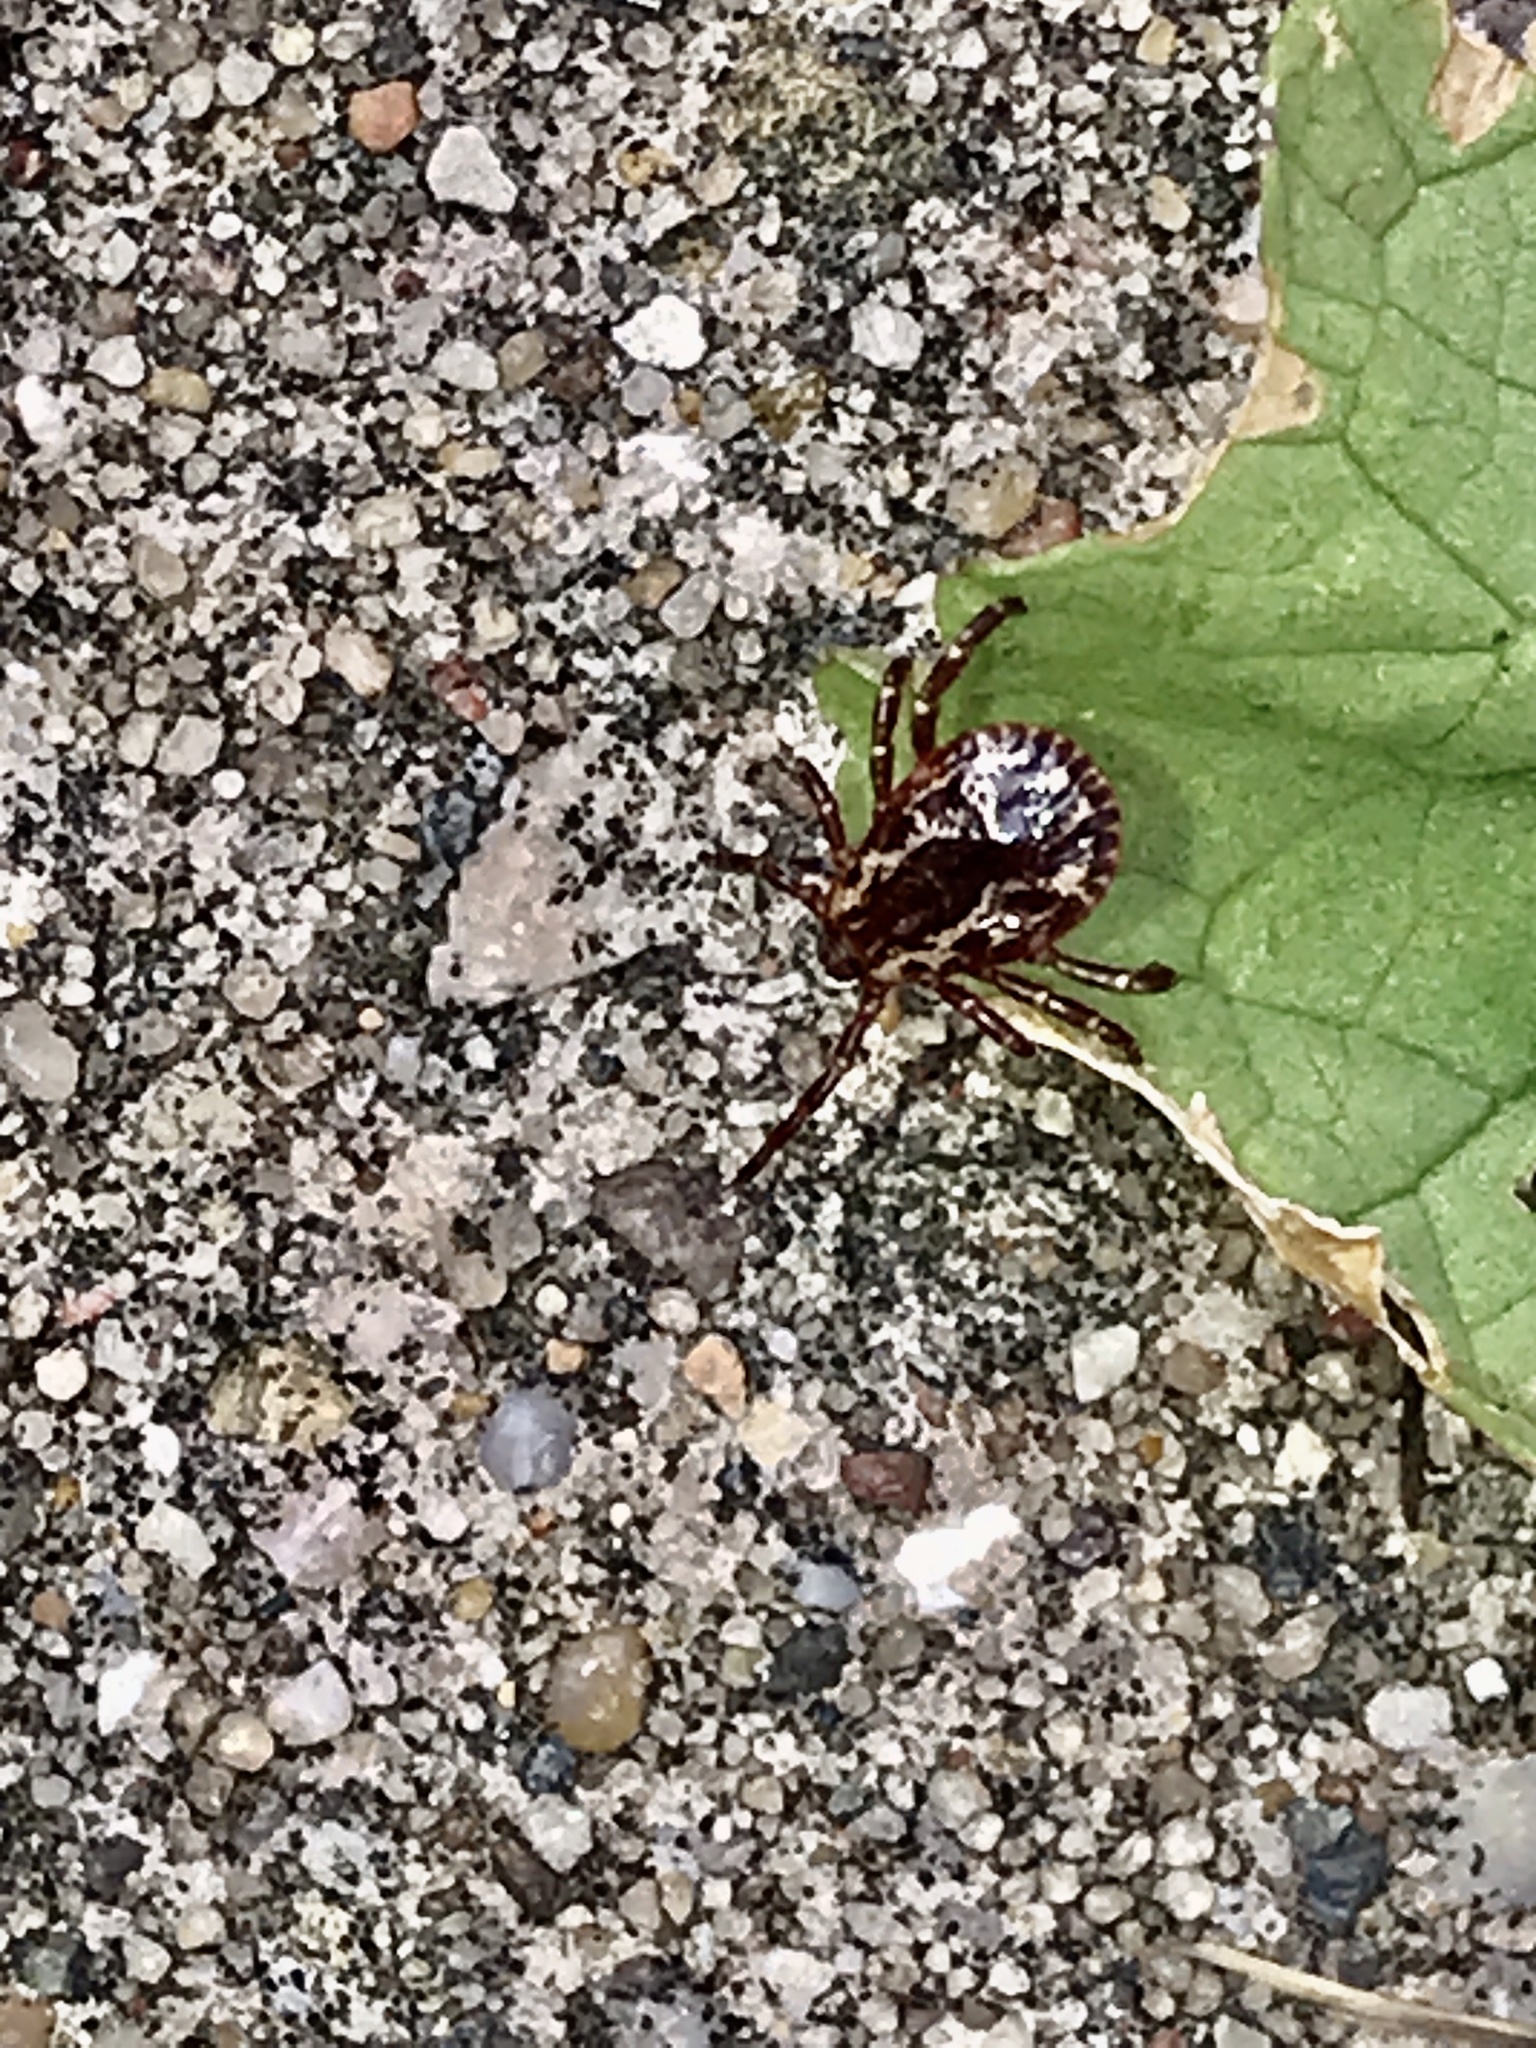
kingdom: Animalia
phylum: Arthropoda
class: Arachnida
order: Ixodida
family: Ixodidae
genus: Dermacentor
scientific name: Dermacentor variabilis
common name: American dog tick
